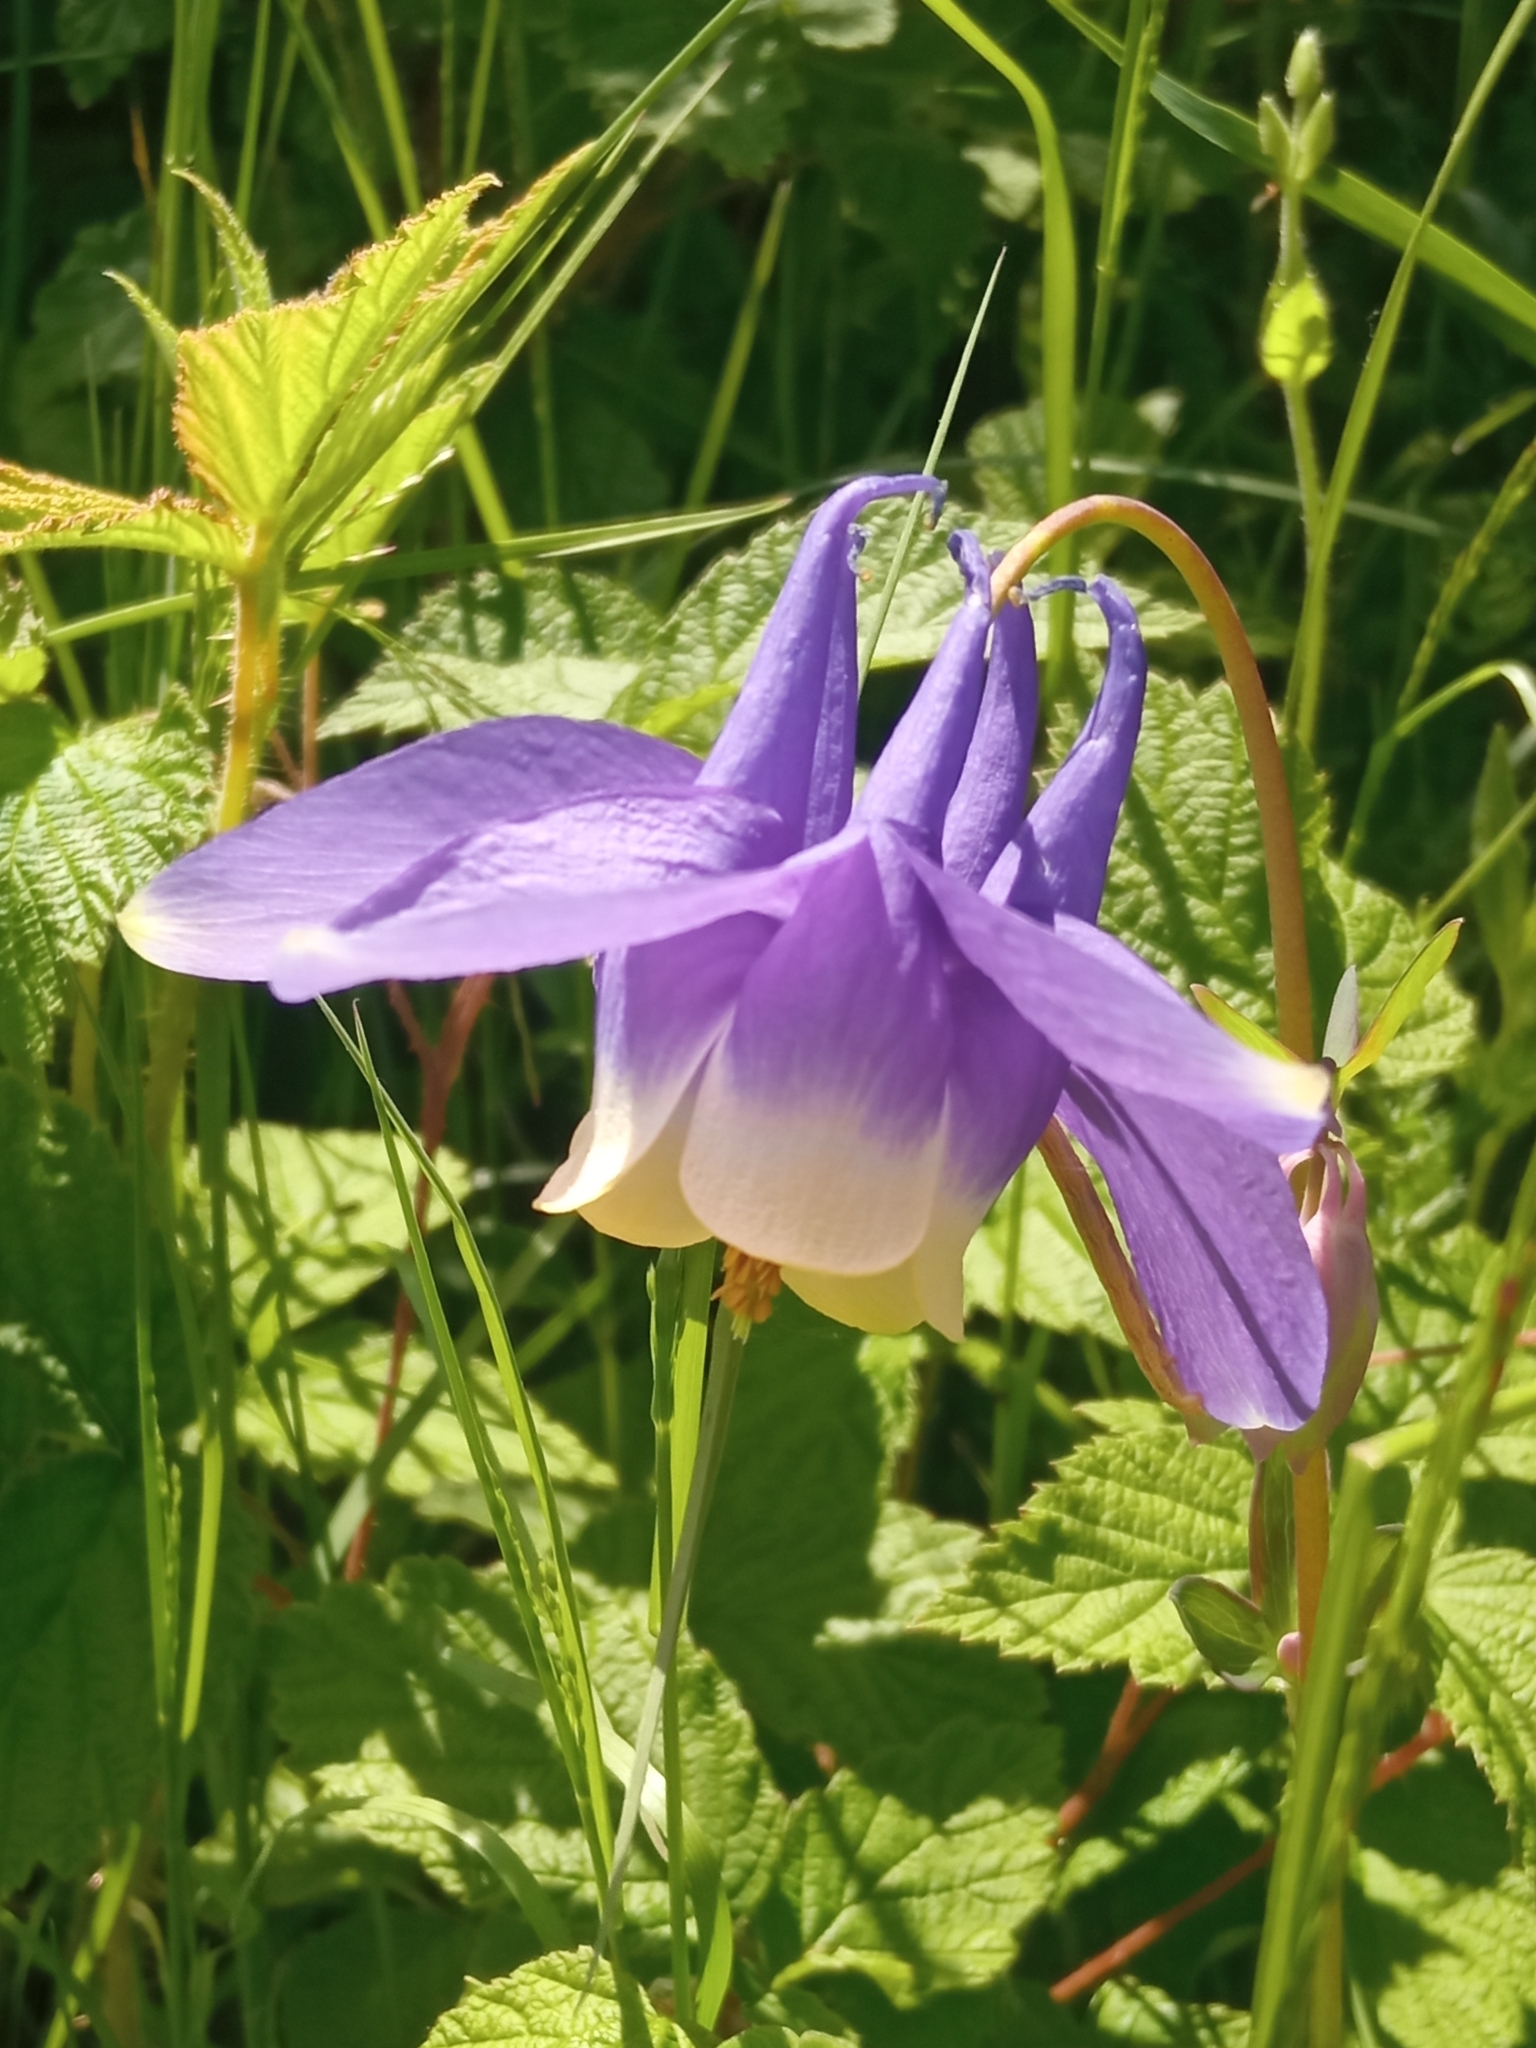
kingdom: Plantae
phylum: Tracheophyta
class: Magnoliopsida
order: Ranunculales
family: Ranunculaceae
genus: Aquilegia
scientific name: Aquilegia sibirica
